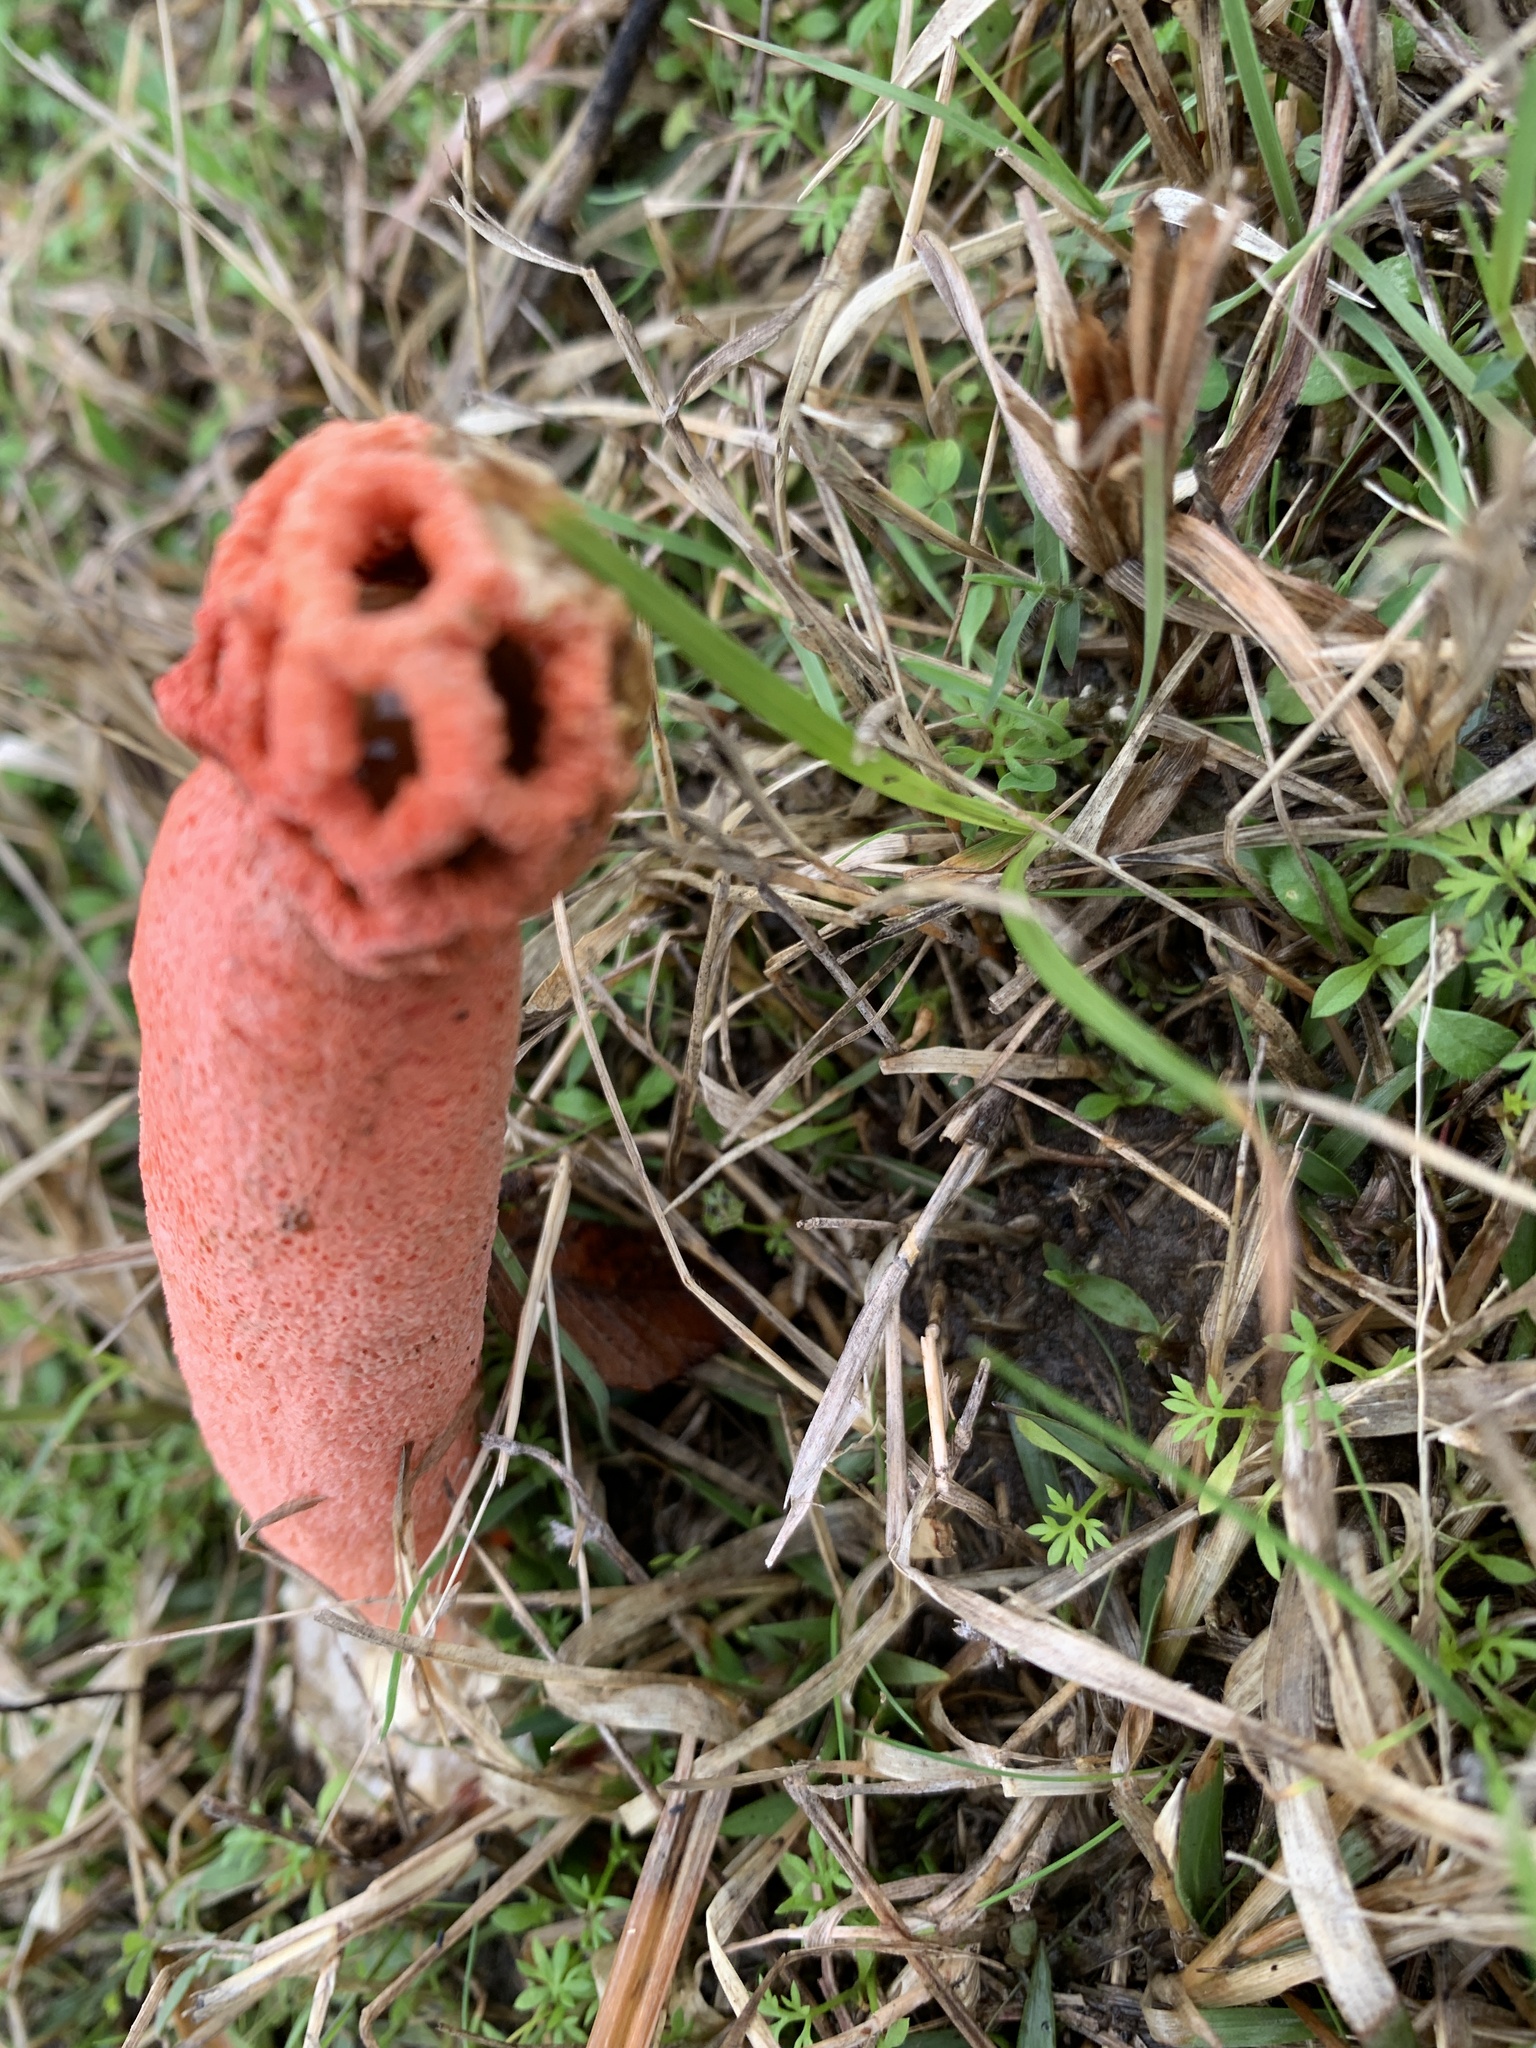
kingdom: Fungi
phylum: Basidiomycota
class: Agaricomycetes
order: Phallales
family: Phallaceae
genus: Lysurus
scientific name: Lysurus periphragmoides
